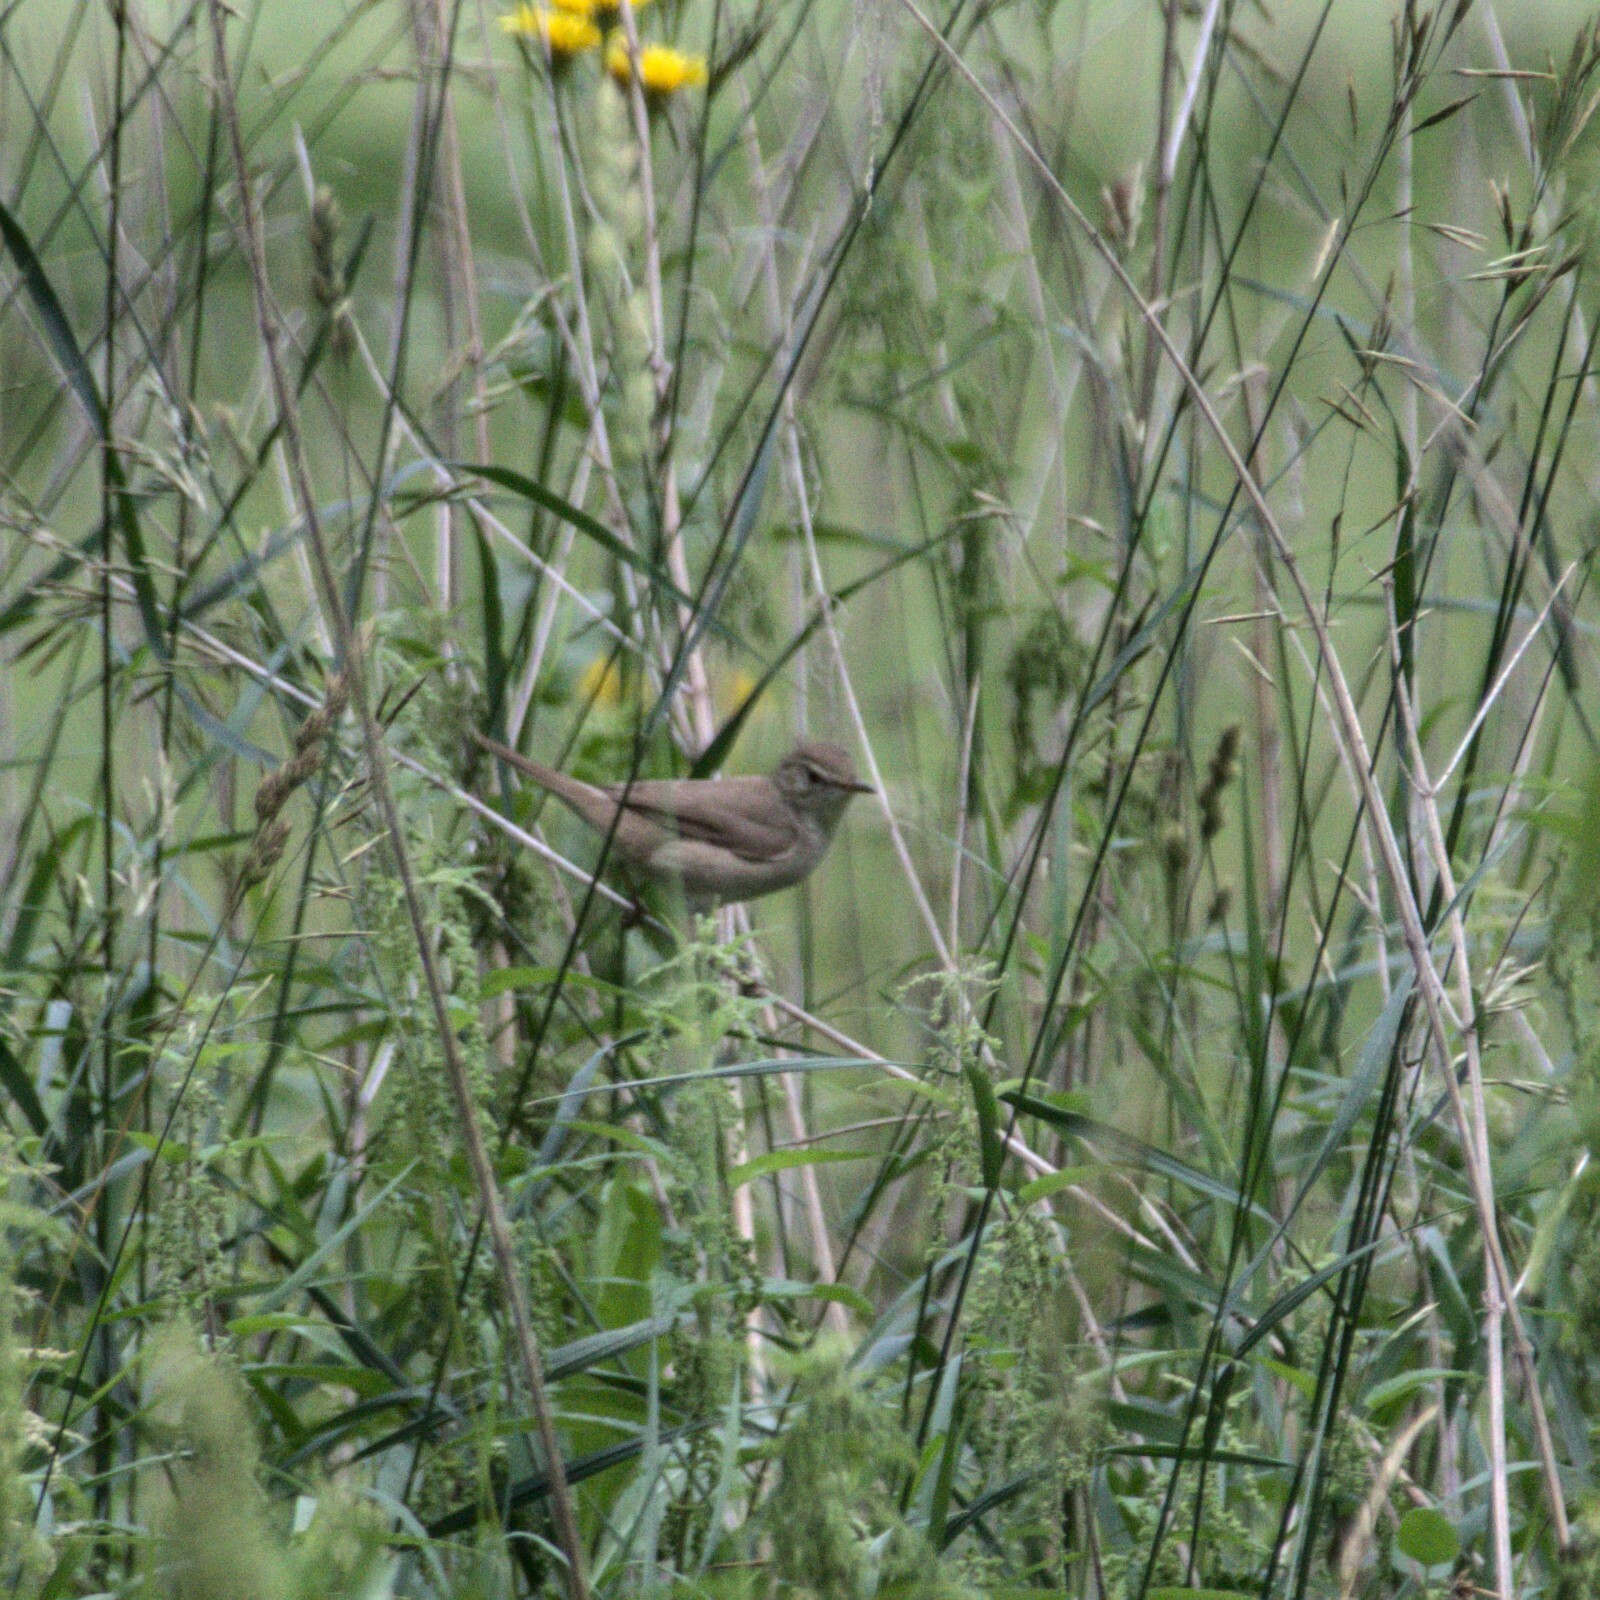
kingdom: Animalia
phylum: Chordata
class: Aves
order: Passeriformes
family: Acrocephalidae
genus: Acrocephalus
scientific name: Acrocephalus dumetorum
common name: Blyth's reed warbler
